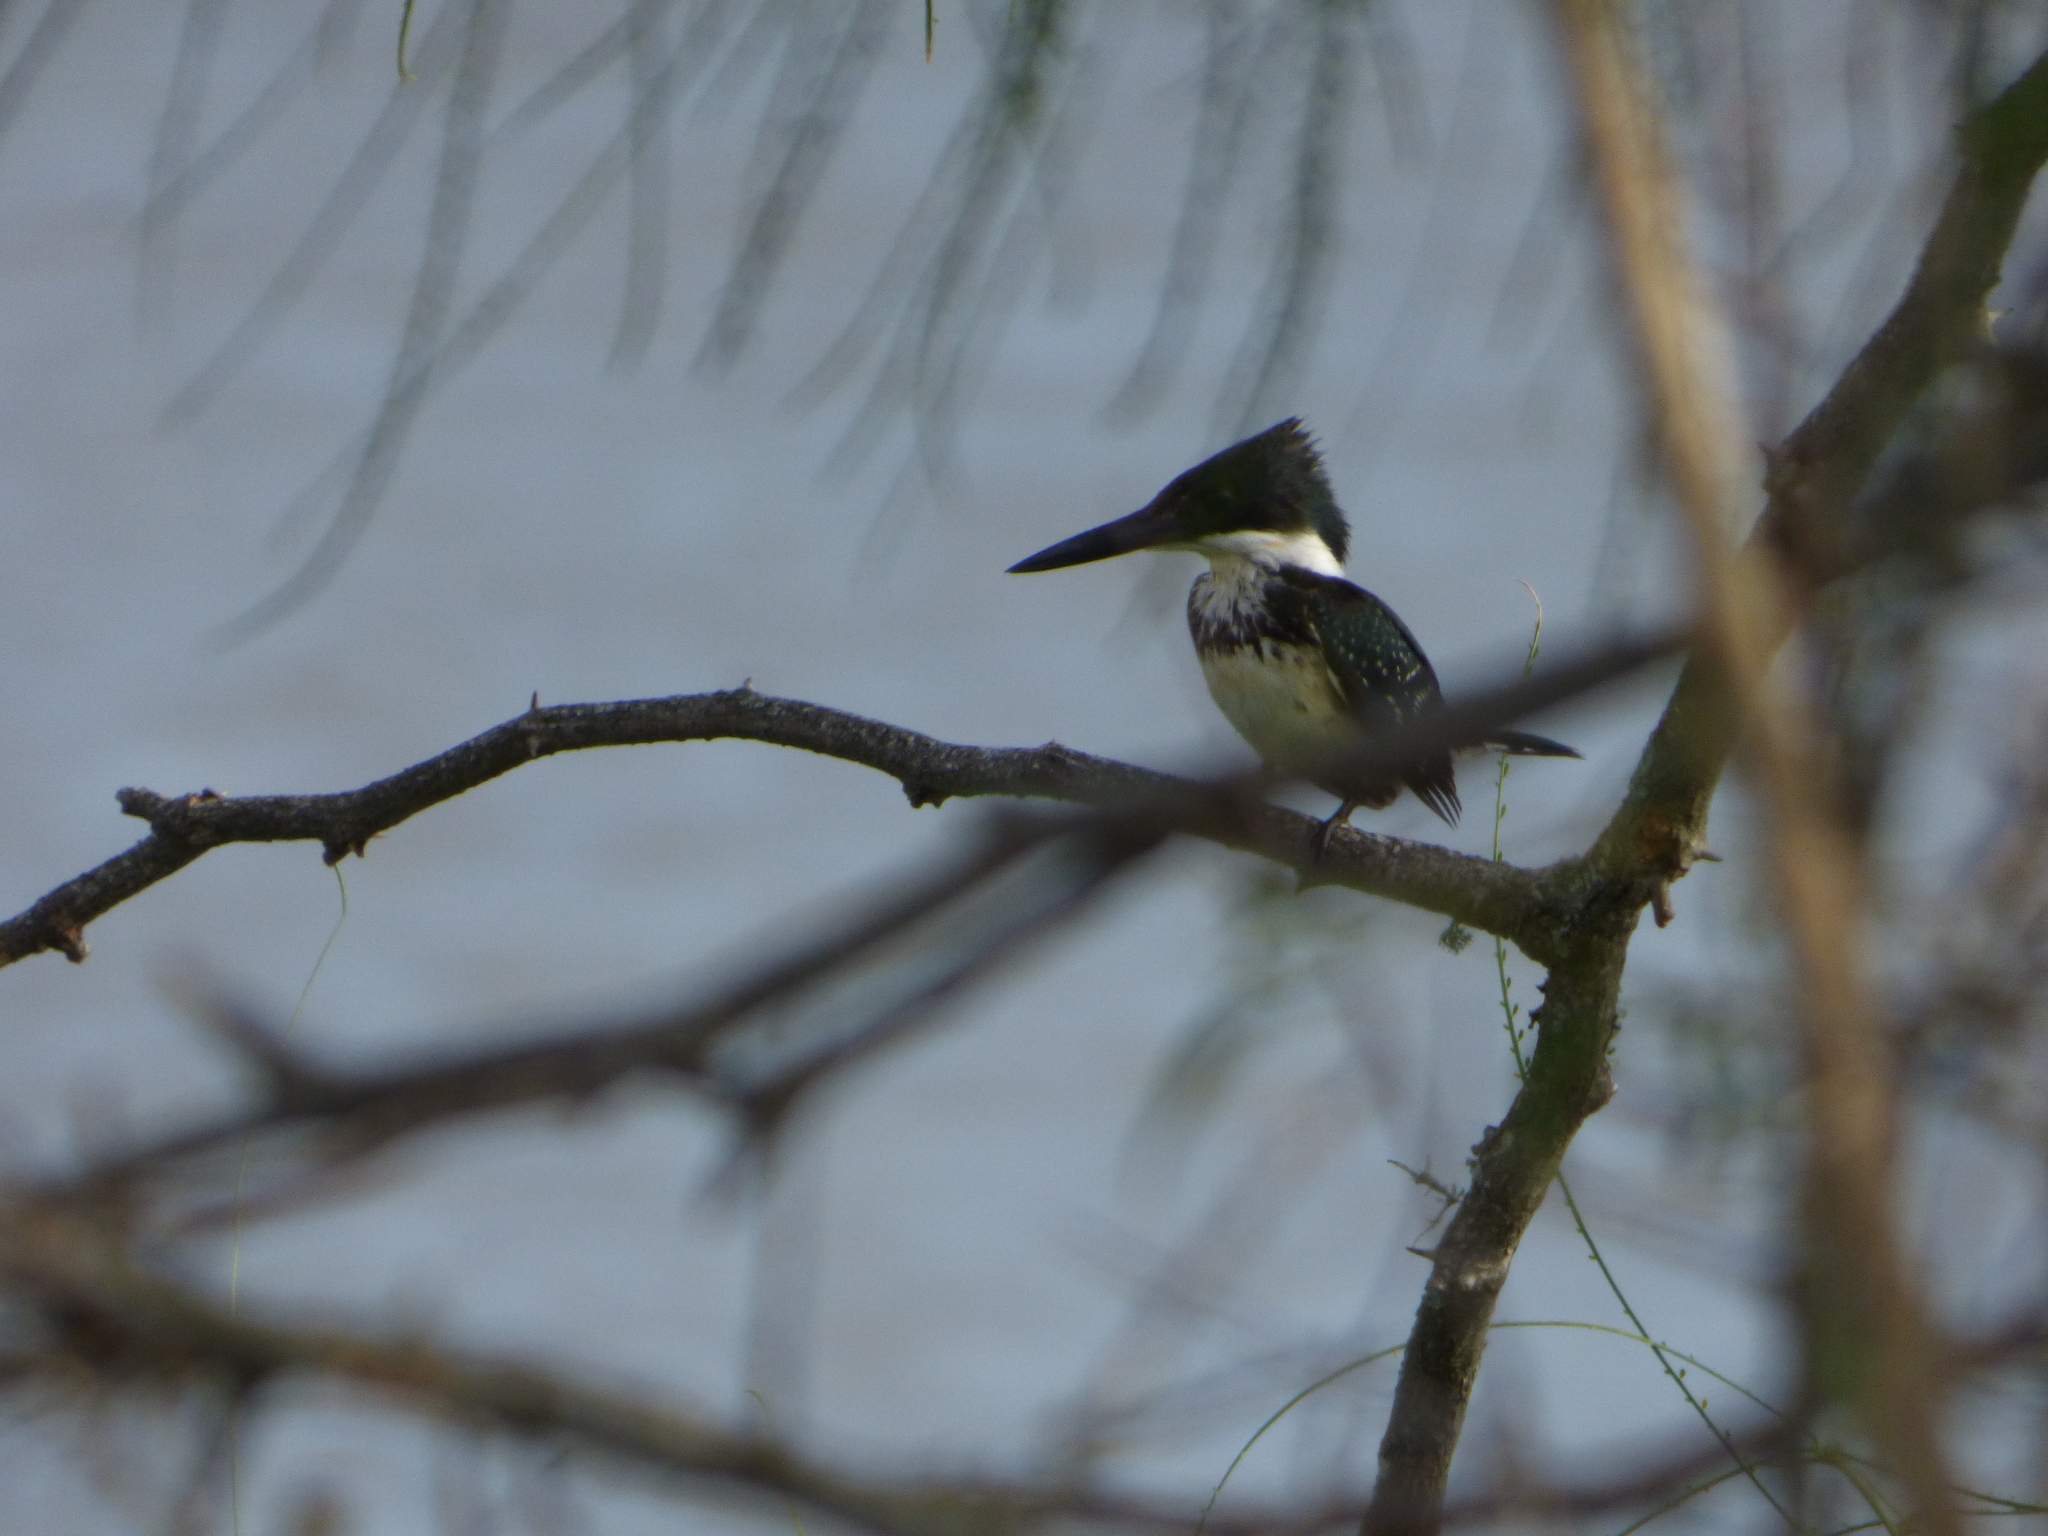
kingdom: Animalia
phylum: Chordata
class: Aves
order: Coraciiformes
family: Alcedinidae
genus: Chloroceryle
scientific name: Chloroceryle americana
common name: Green kingfisher
